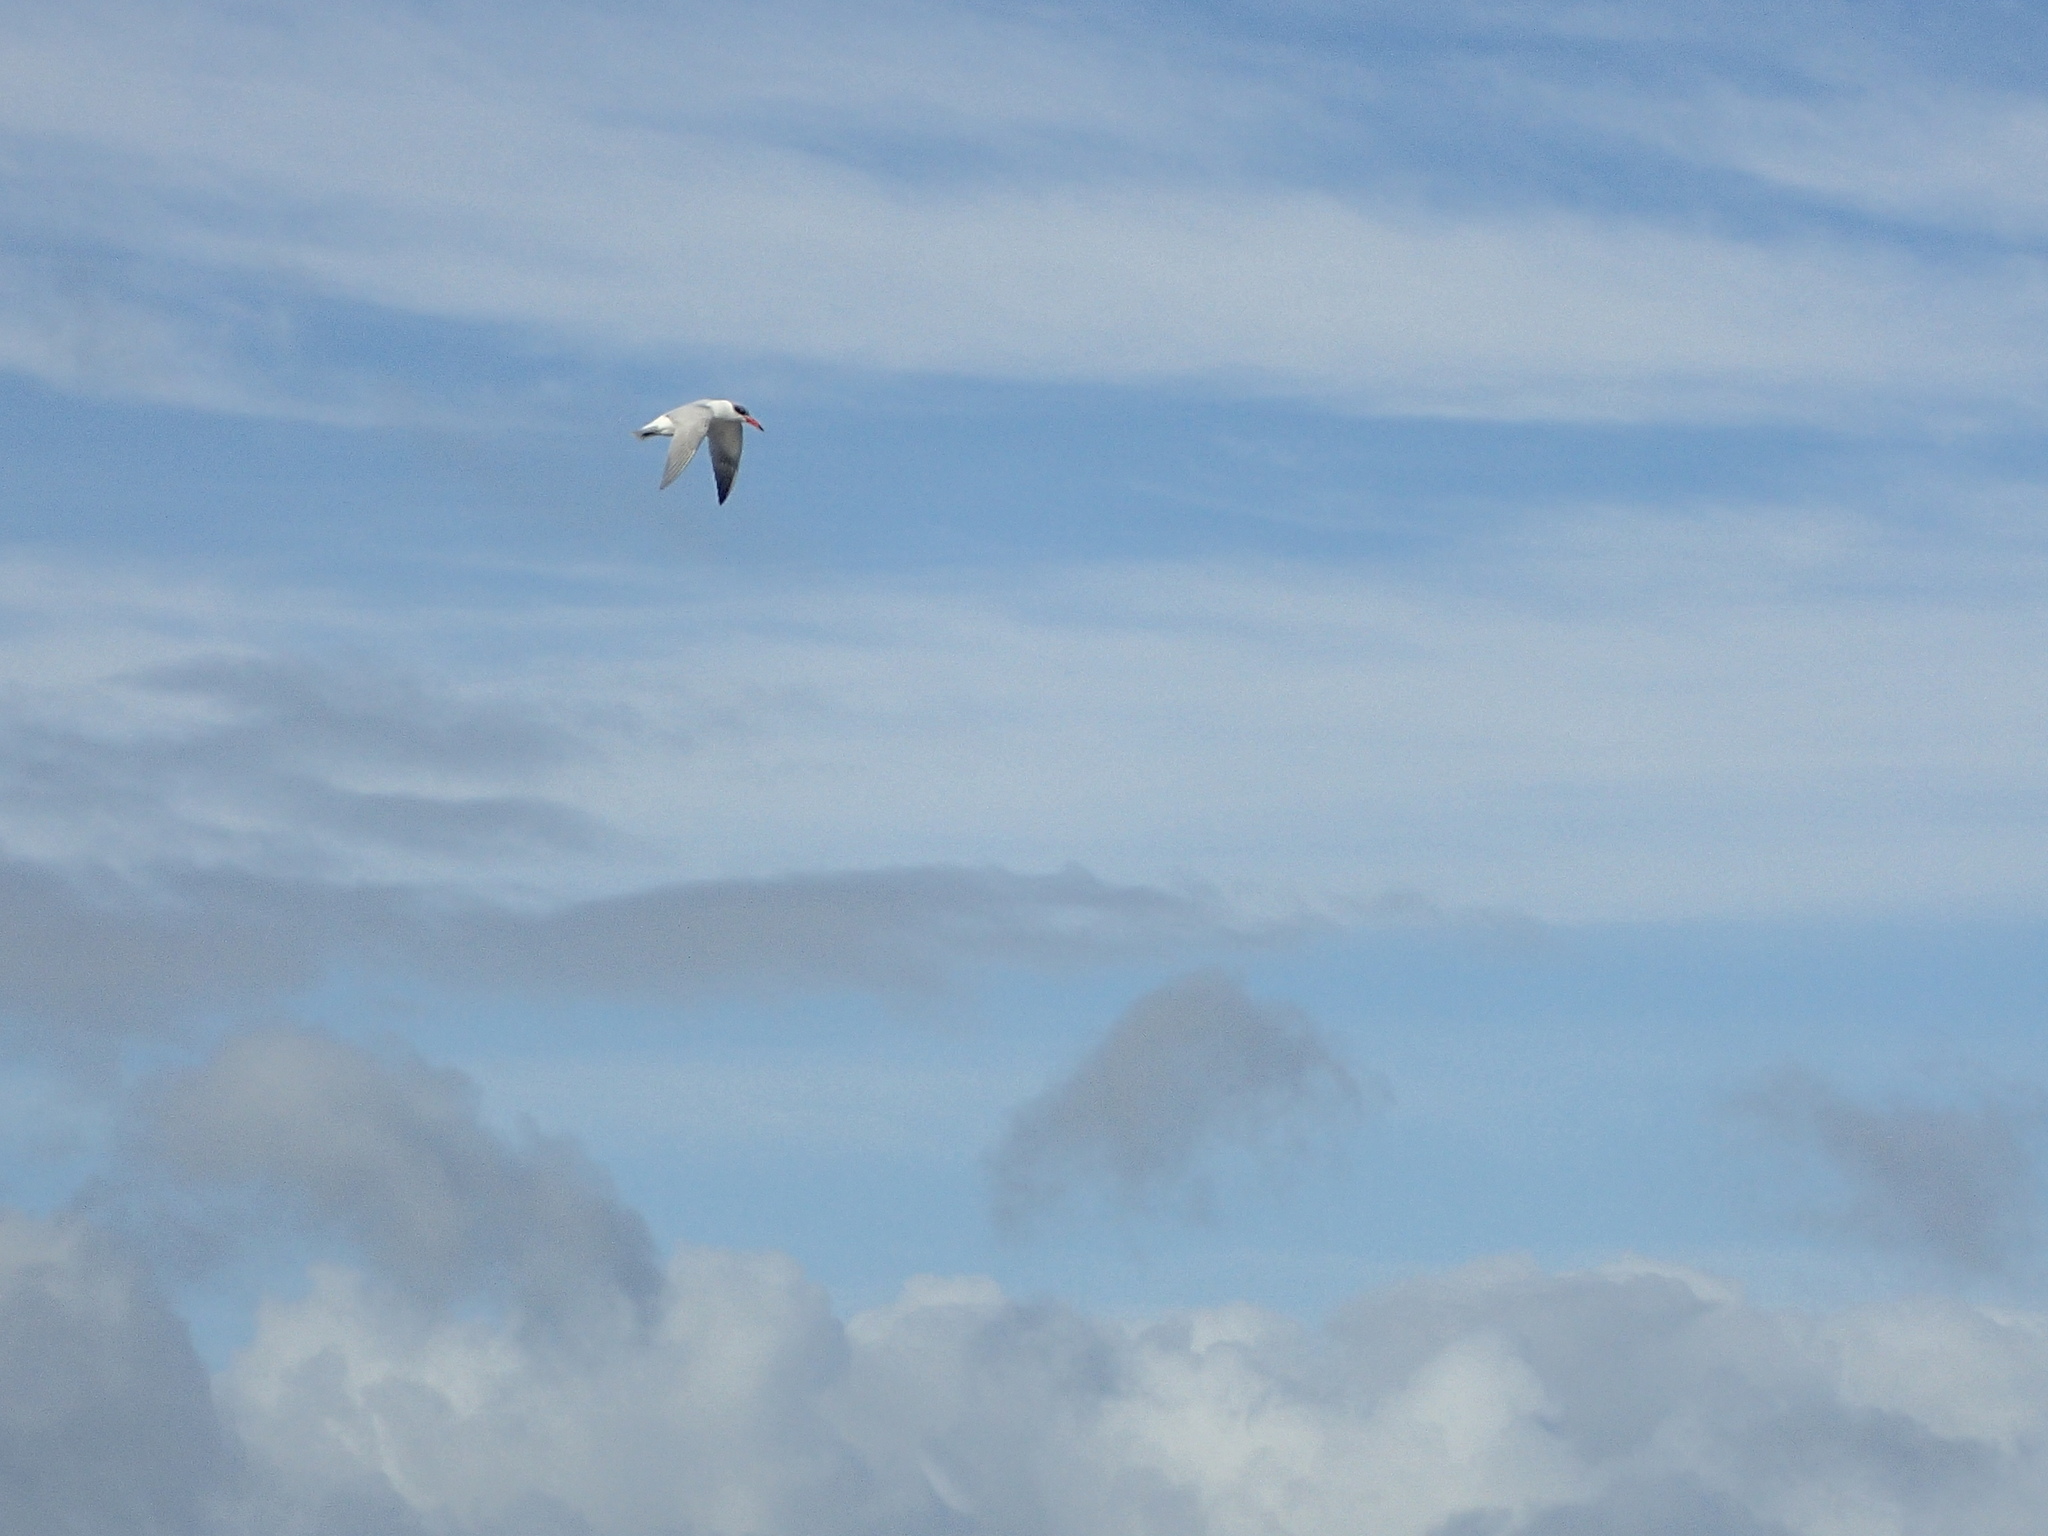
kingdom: Animalia
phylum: Chordata
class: Aves
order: Charadriiformes
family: Laridae
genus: Hydroprogne
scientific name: Hydroprogne caspia
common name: Caspian tern
